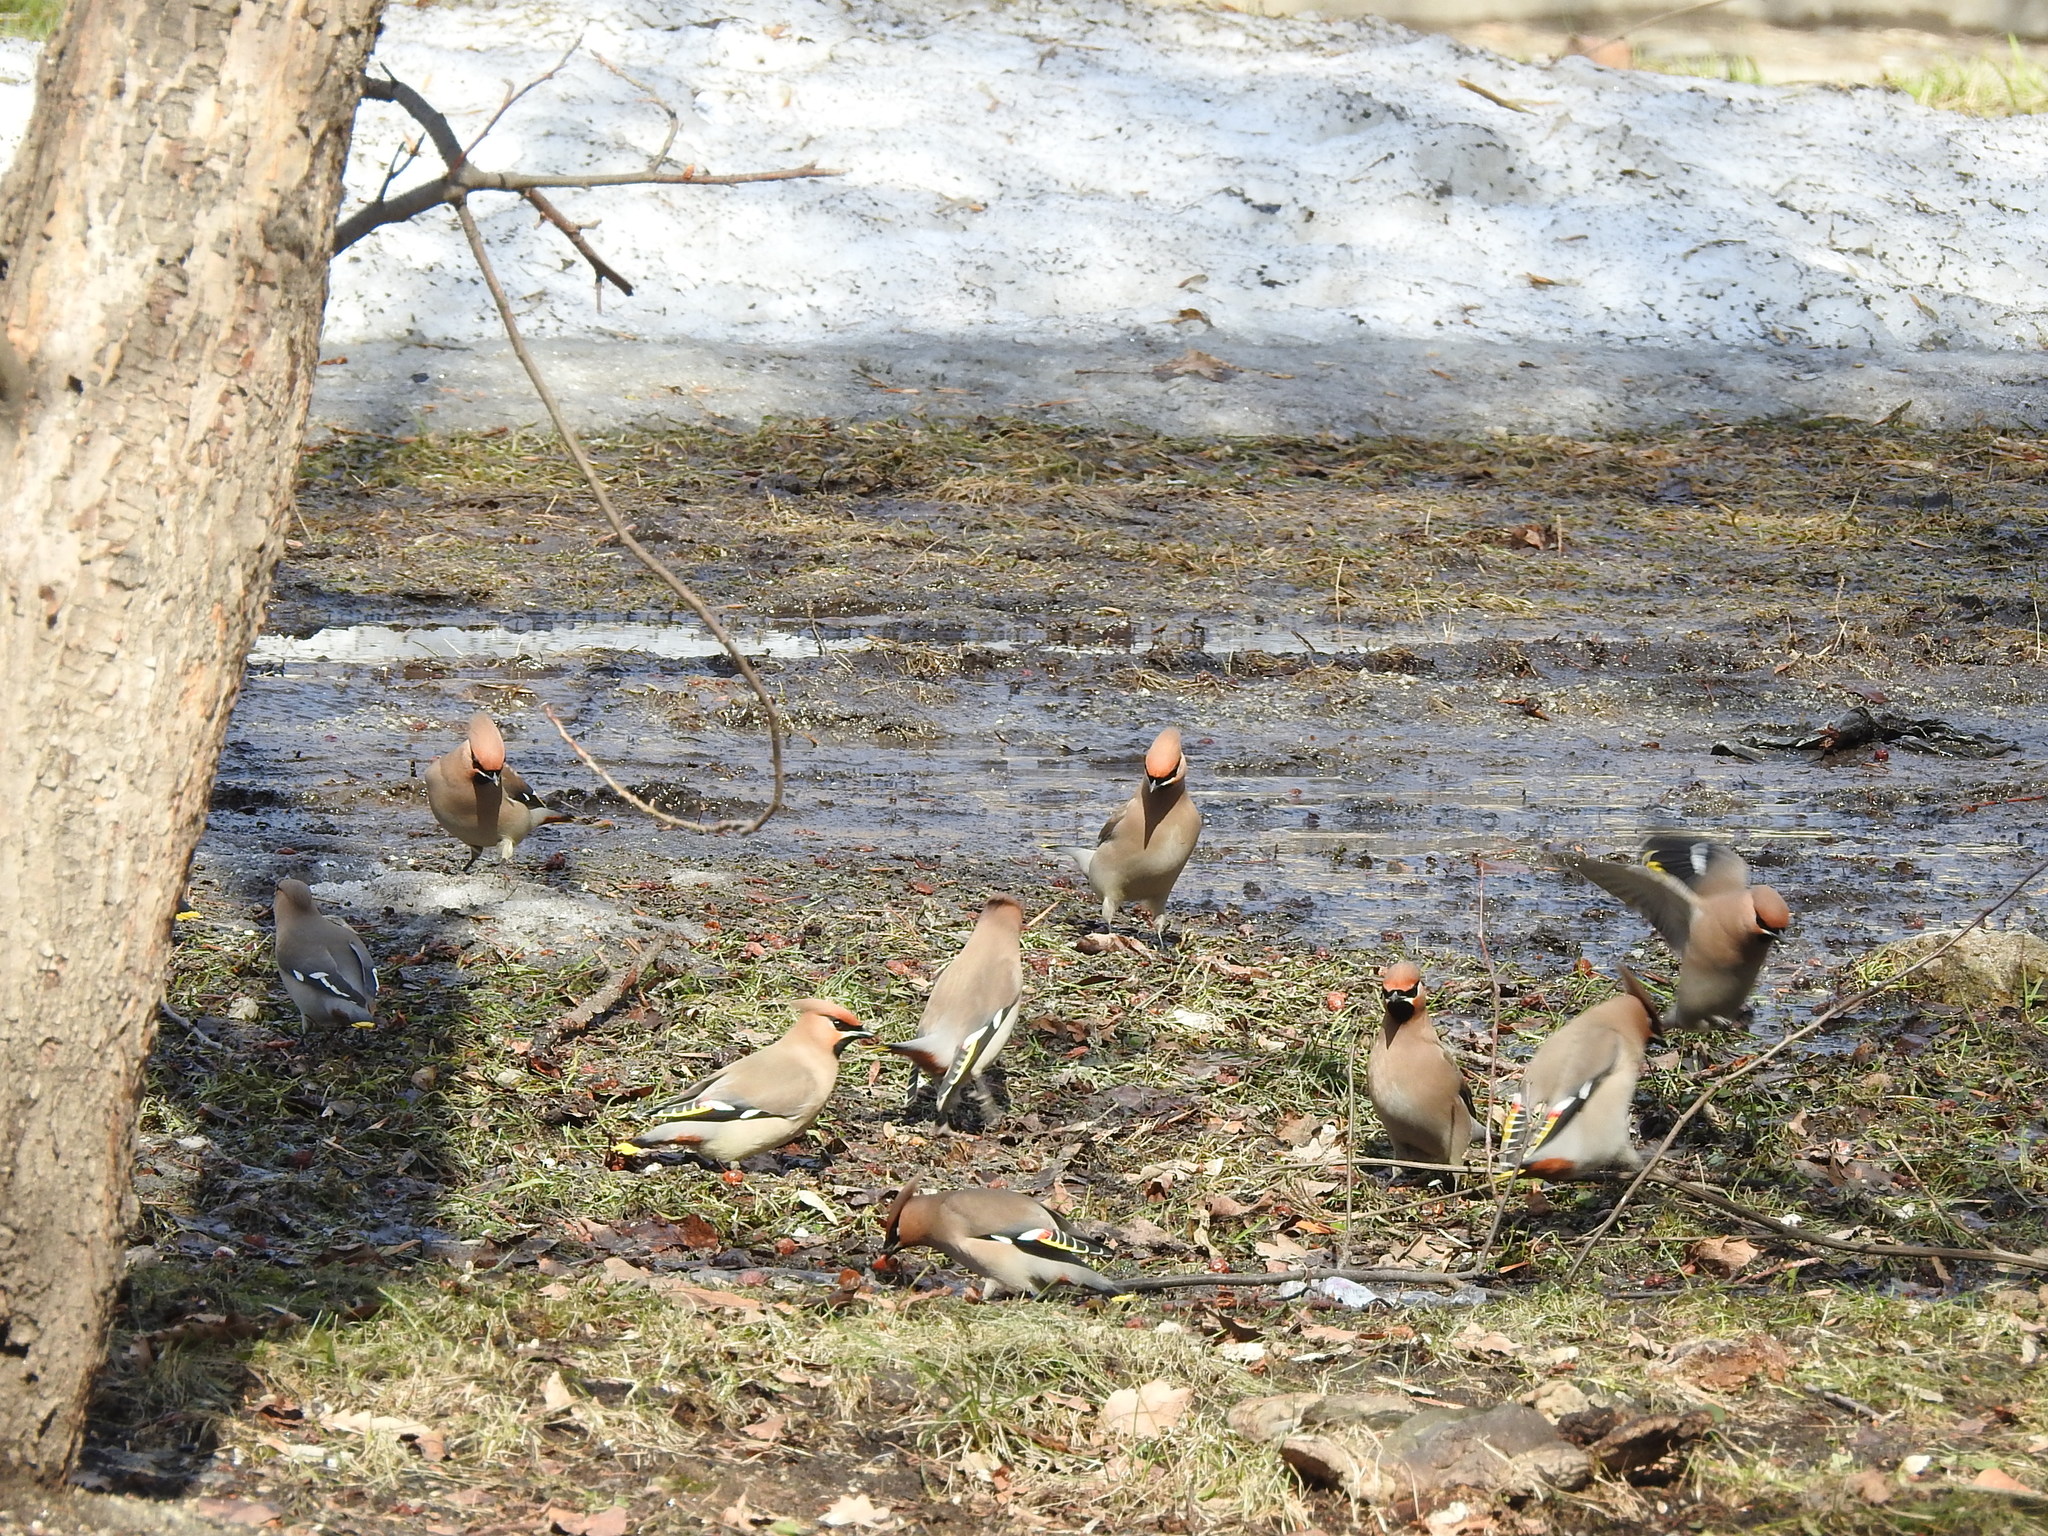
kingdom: Animalia
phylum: Chordata
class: Aves
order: Passeriformes
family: Bombycillidae
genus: Bombycilla
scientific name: Bombycilla garrulus
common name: Bohemian waxwing
